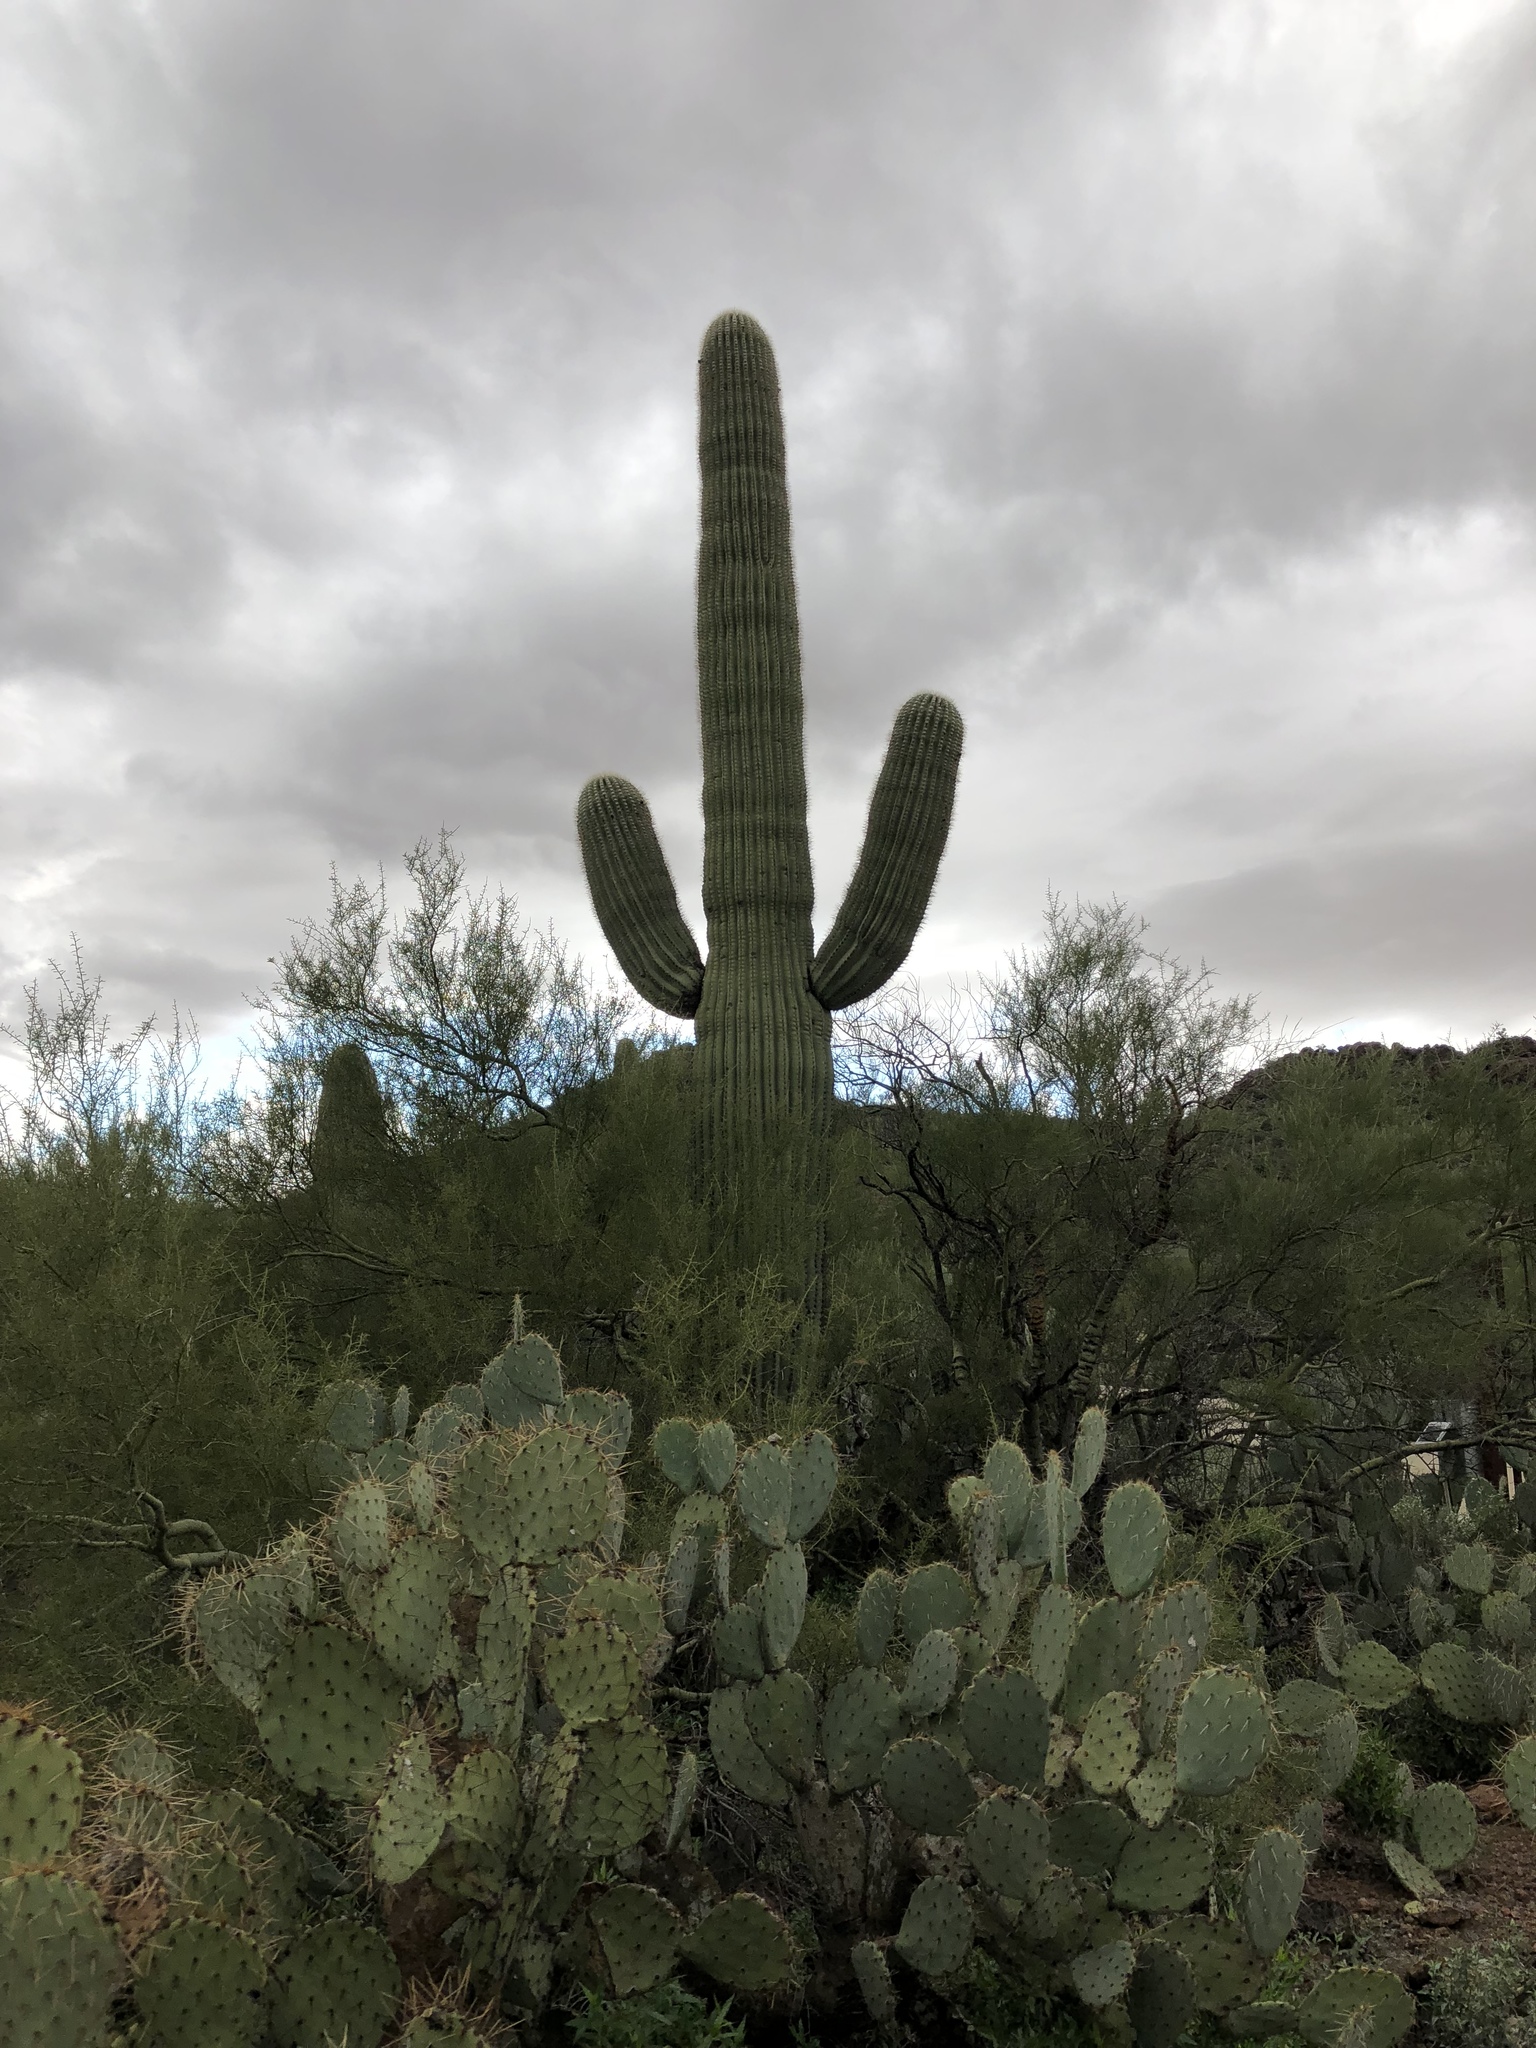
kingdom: Plantae
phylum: Tracheophyta
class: Magnoliopsida
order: Caryophyllales
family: Cactaceae
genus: Carnegiea
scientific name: Carnegiea gigantea
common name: Saguaro
